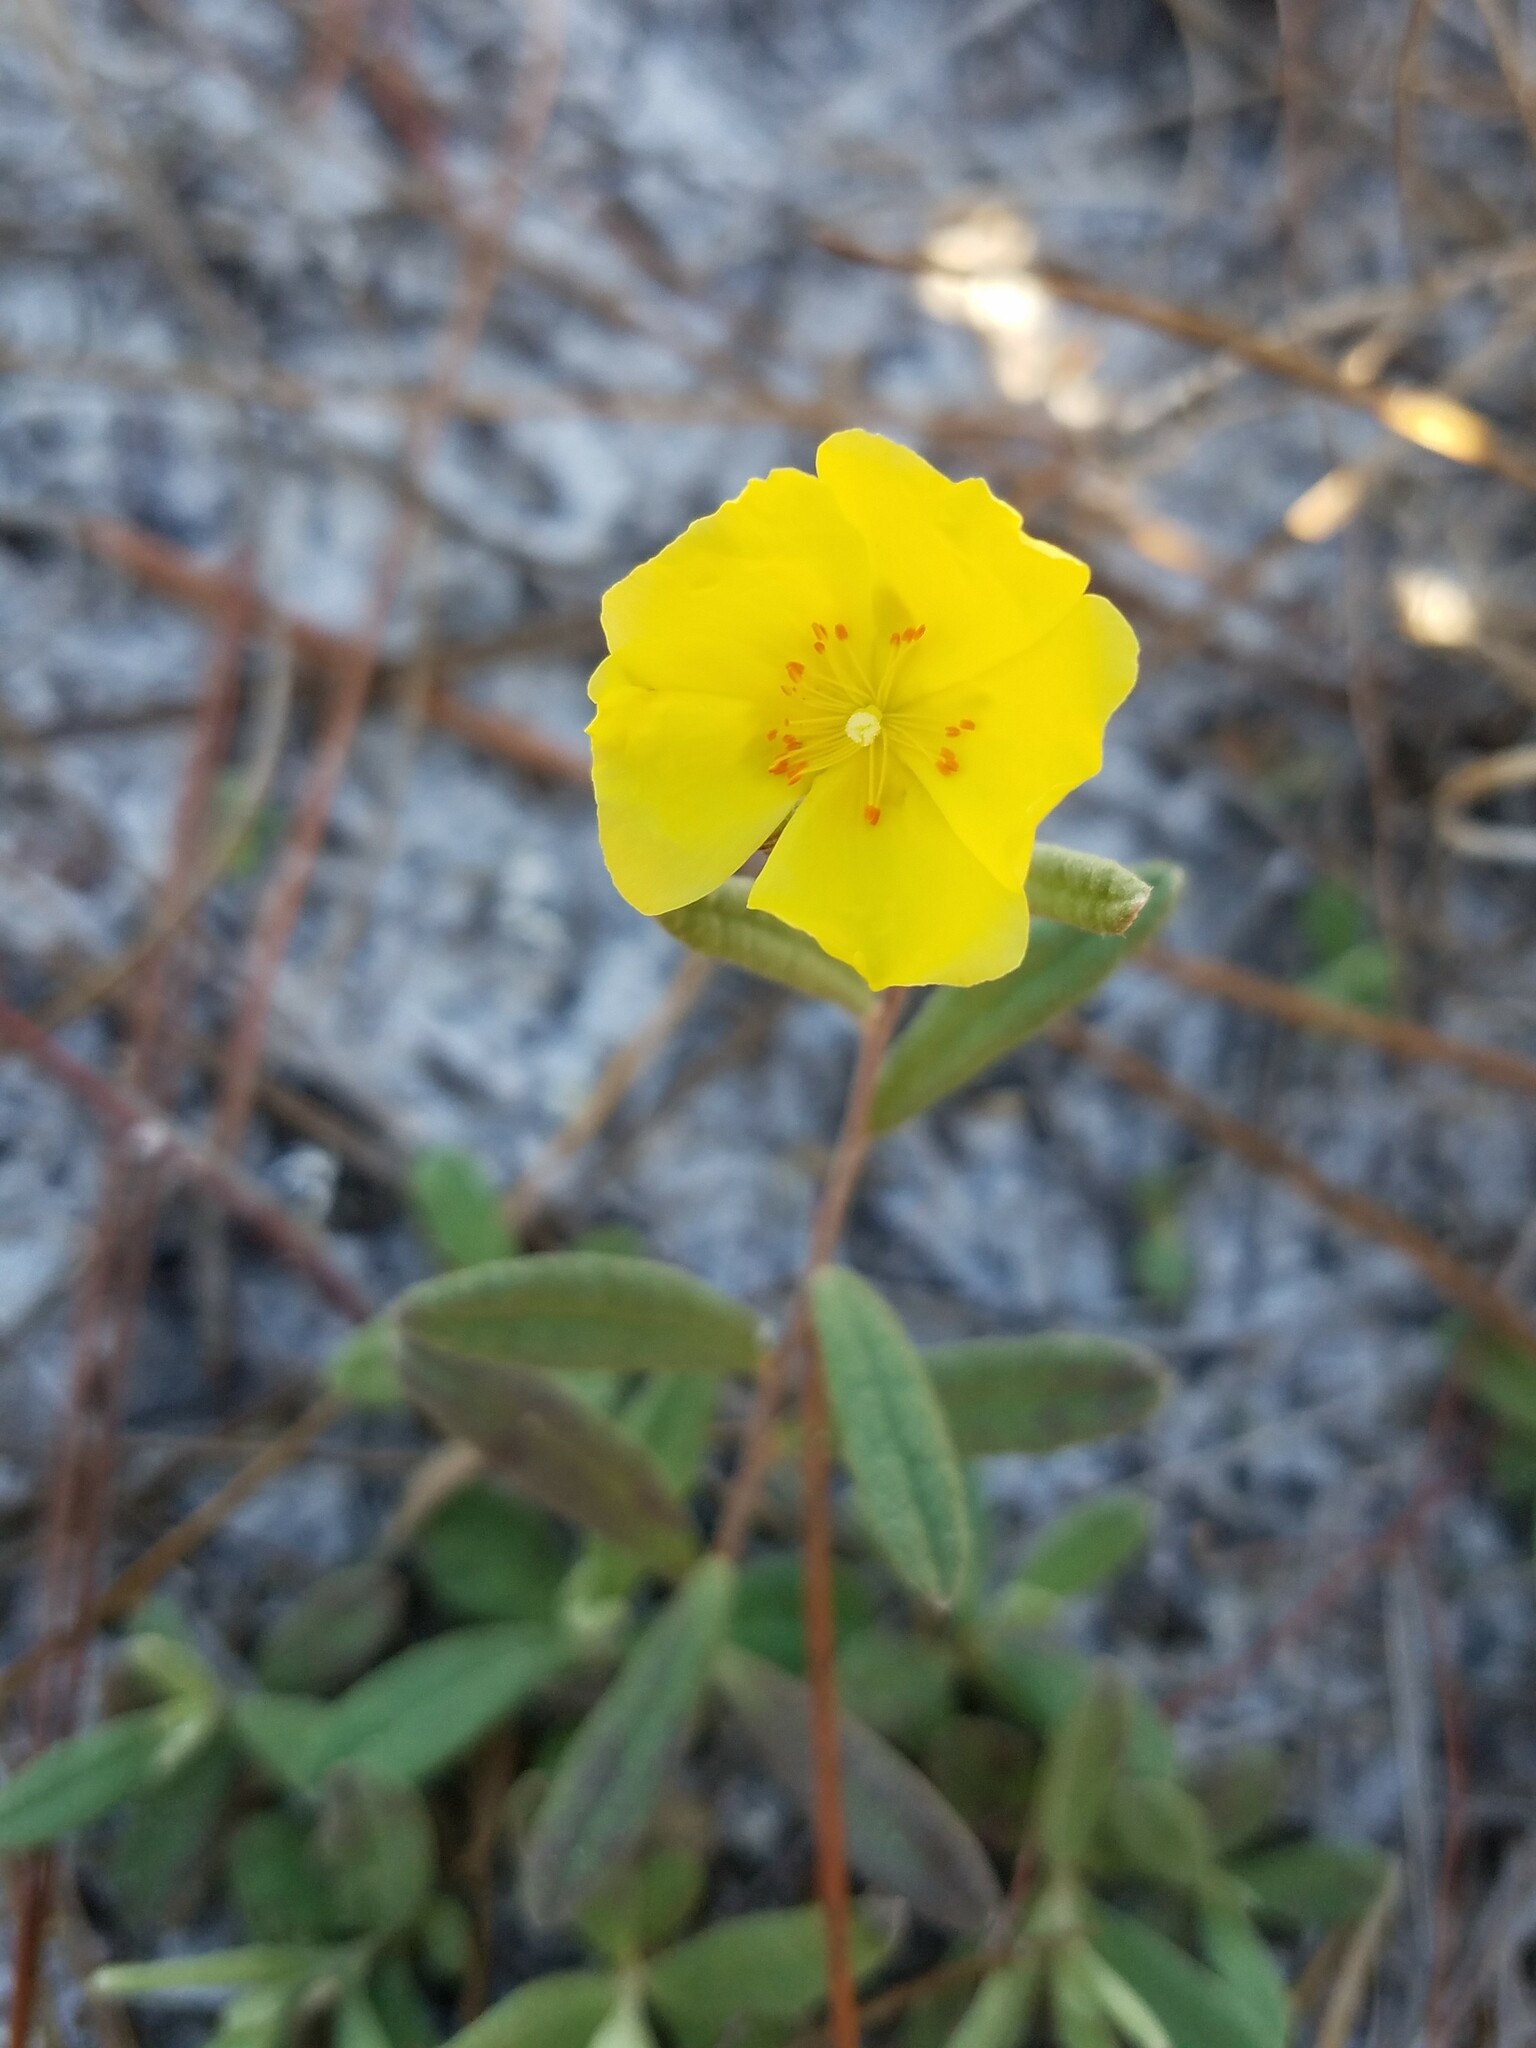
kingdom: Plantae
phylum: Tracheophyta
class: Magnoliopsida
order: Malvales
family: Cistaceae
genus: Crocanthemum
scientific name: Crocanthemum arenicola
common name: Gulf coast frostweed
